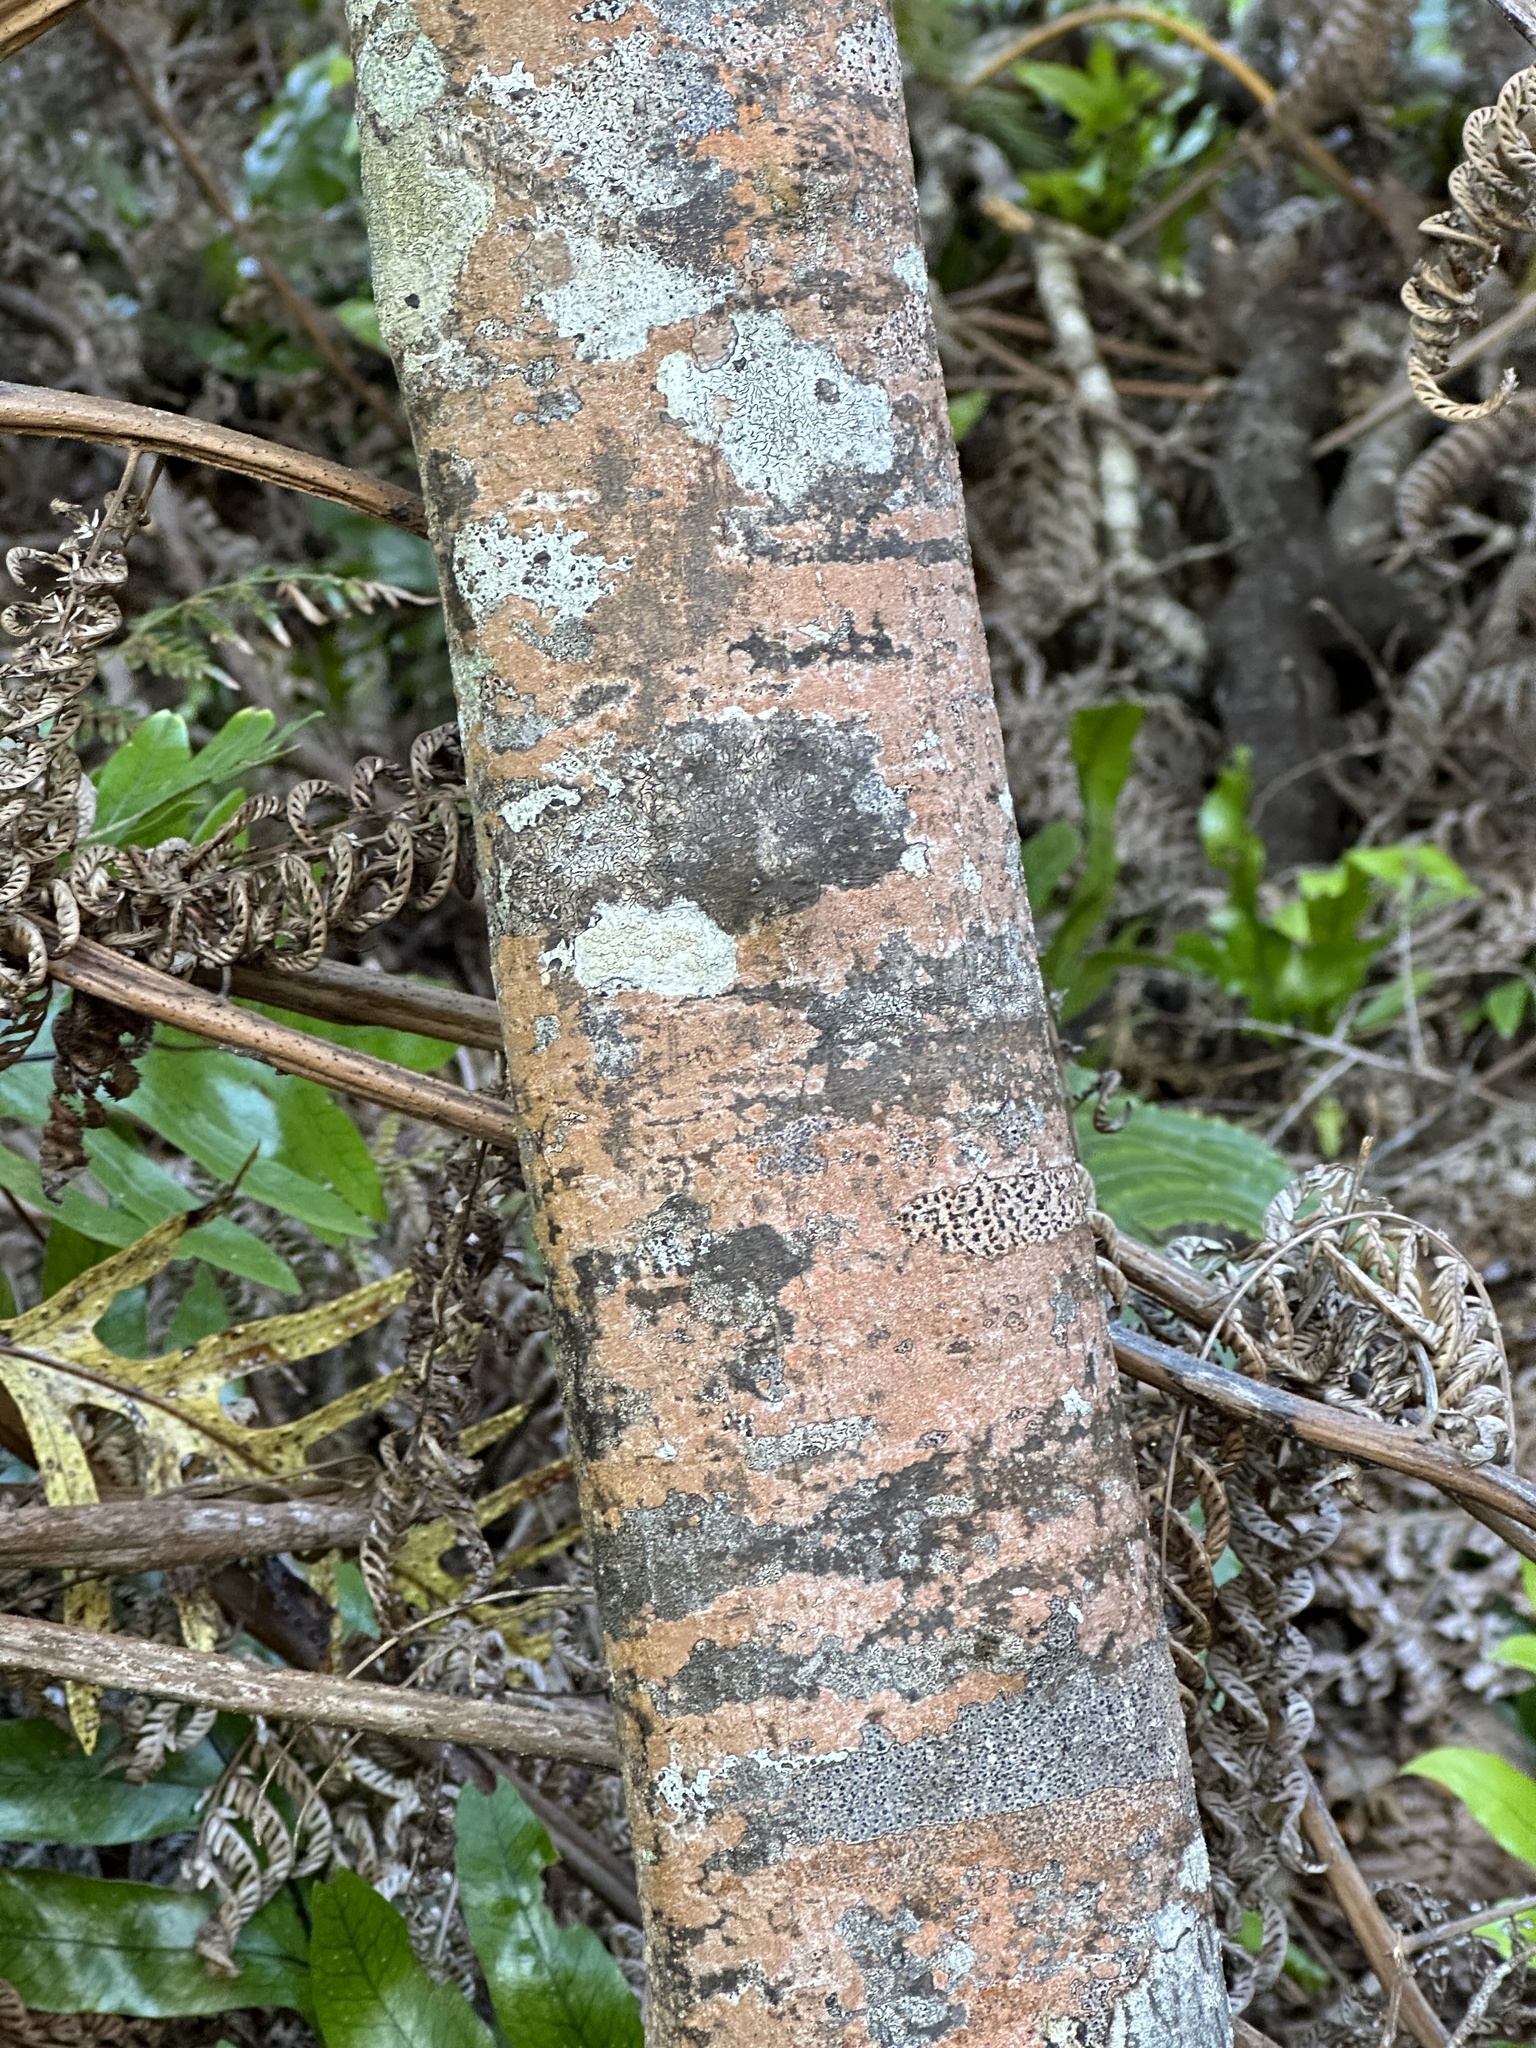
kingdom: Plantae
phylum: Tracheophyta
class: Magnoliopsida
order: Oxalidales
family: Elaeocarpaceae
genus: Elaeocarpus
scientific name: Elaeocarpus dentatus
